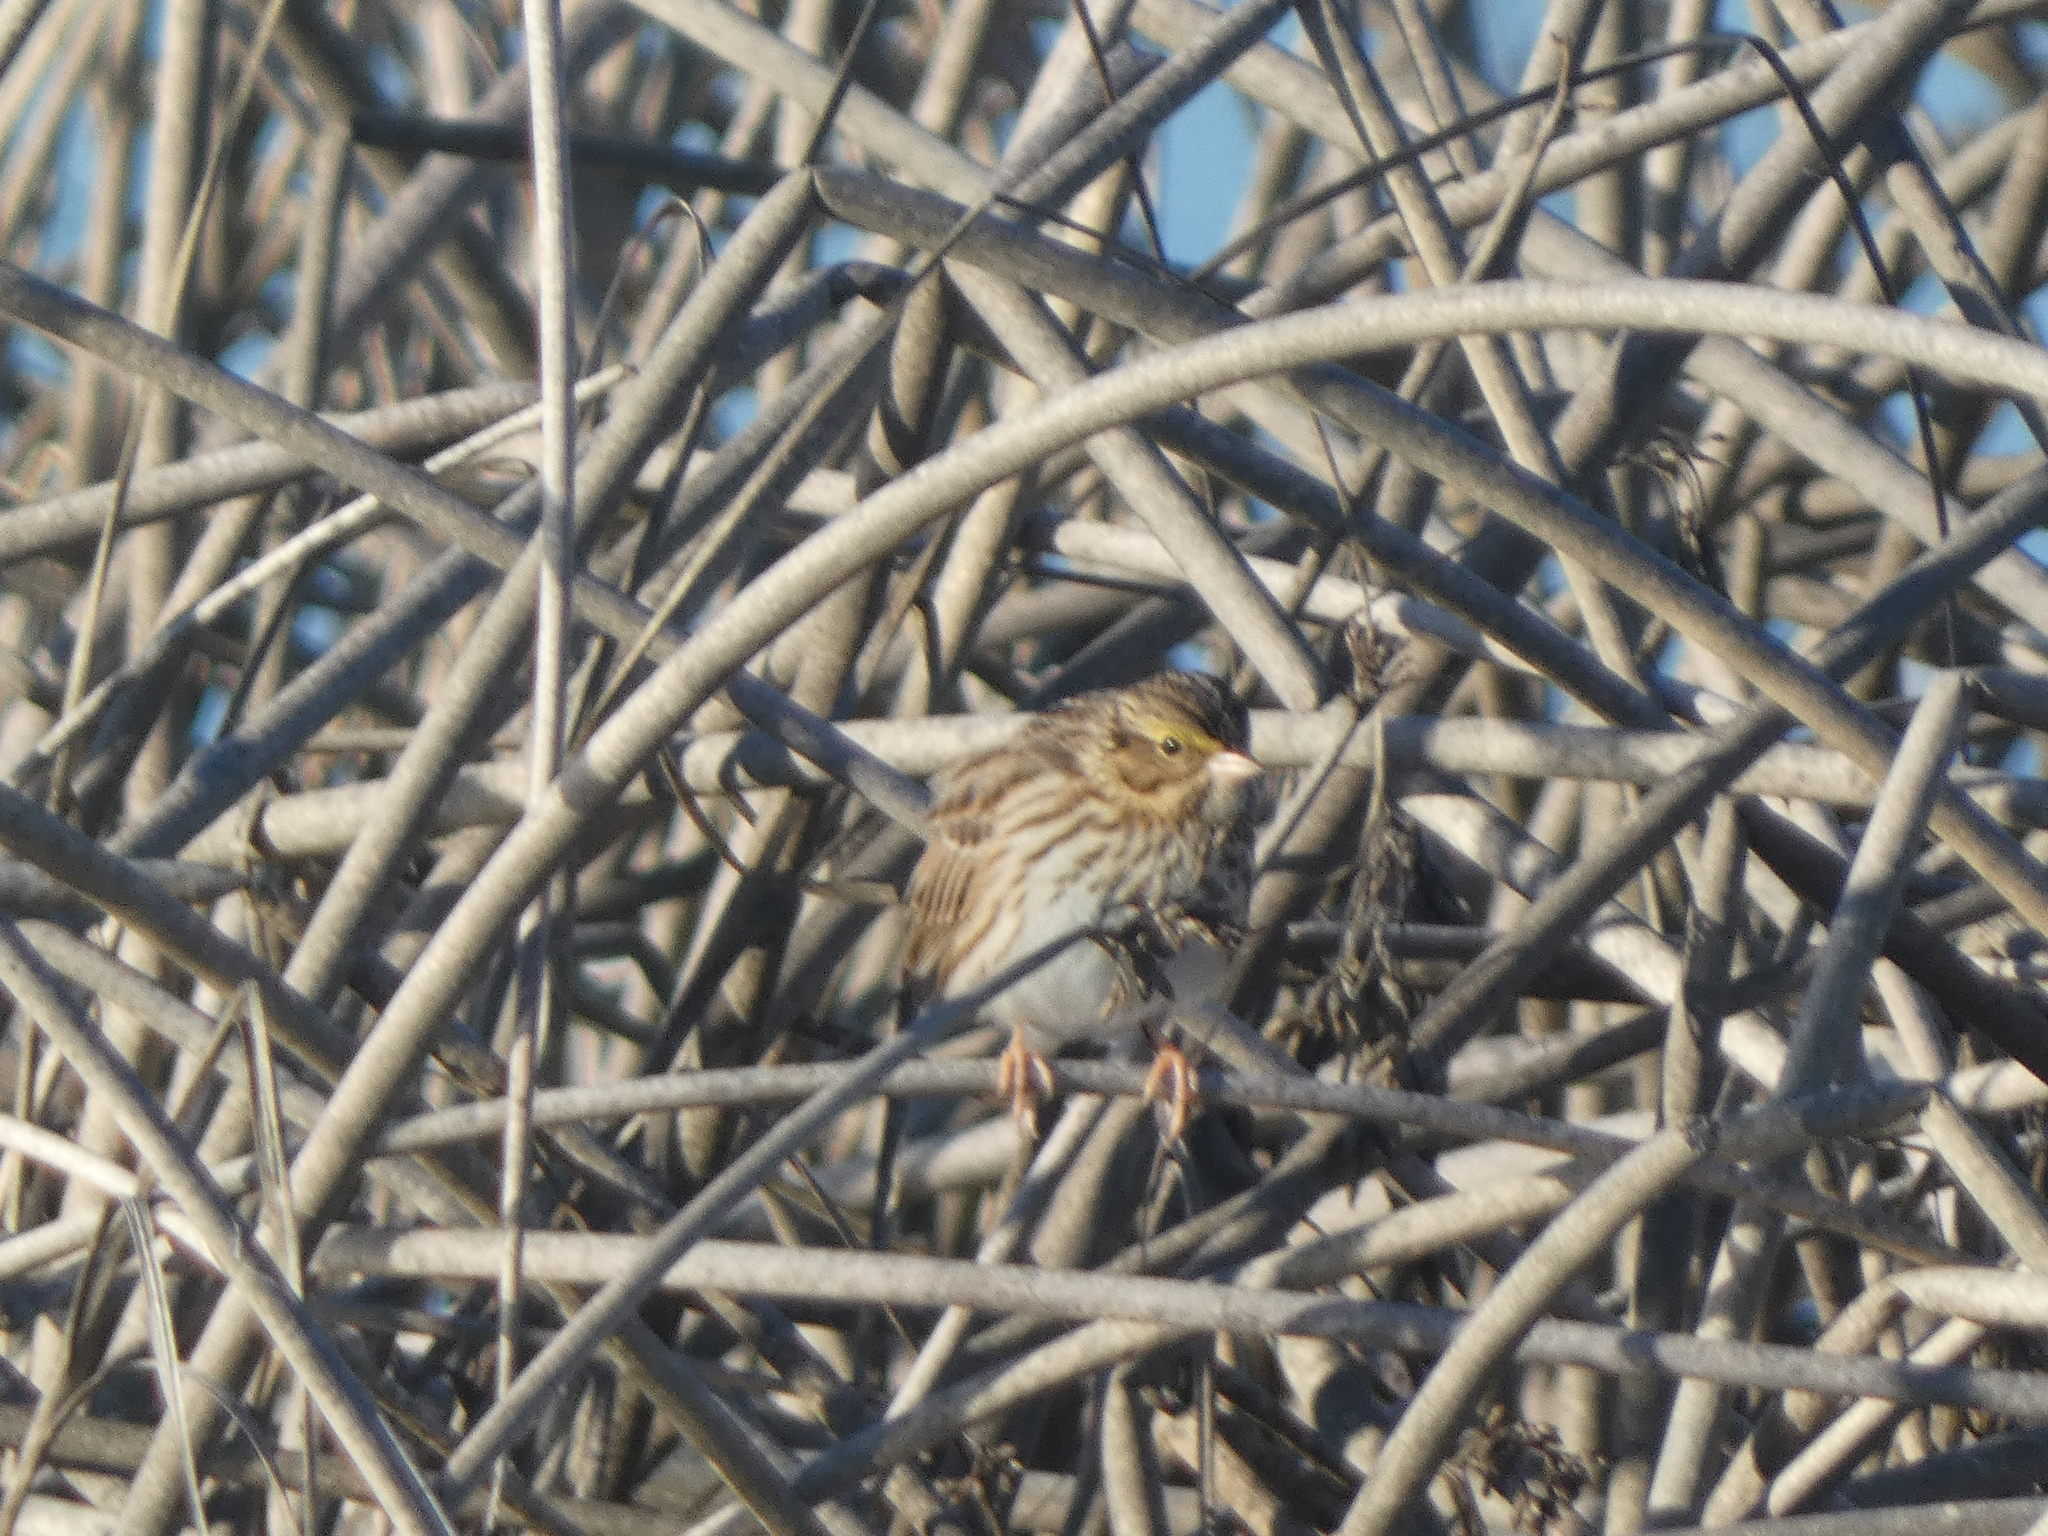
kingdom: Animalia
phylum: Chordata
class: Aves
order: Passeriformes
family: Passerellidae
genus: Passerculus
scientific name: Passerculus sandwichensis
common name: Savannah sparrow
